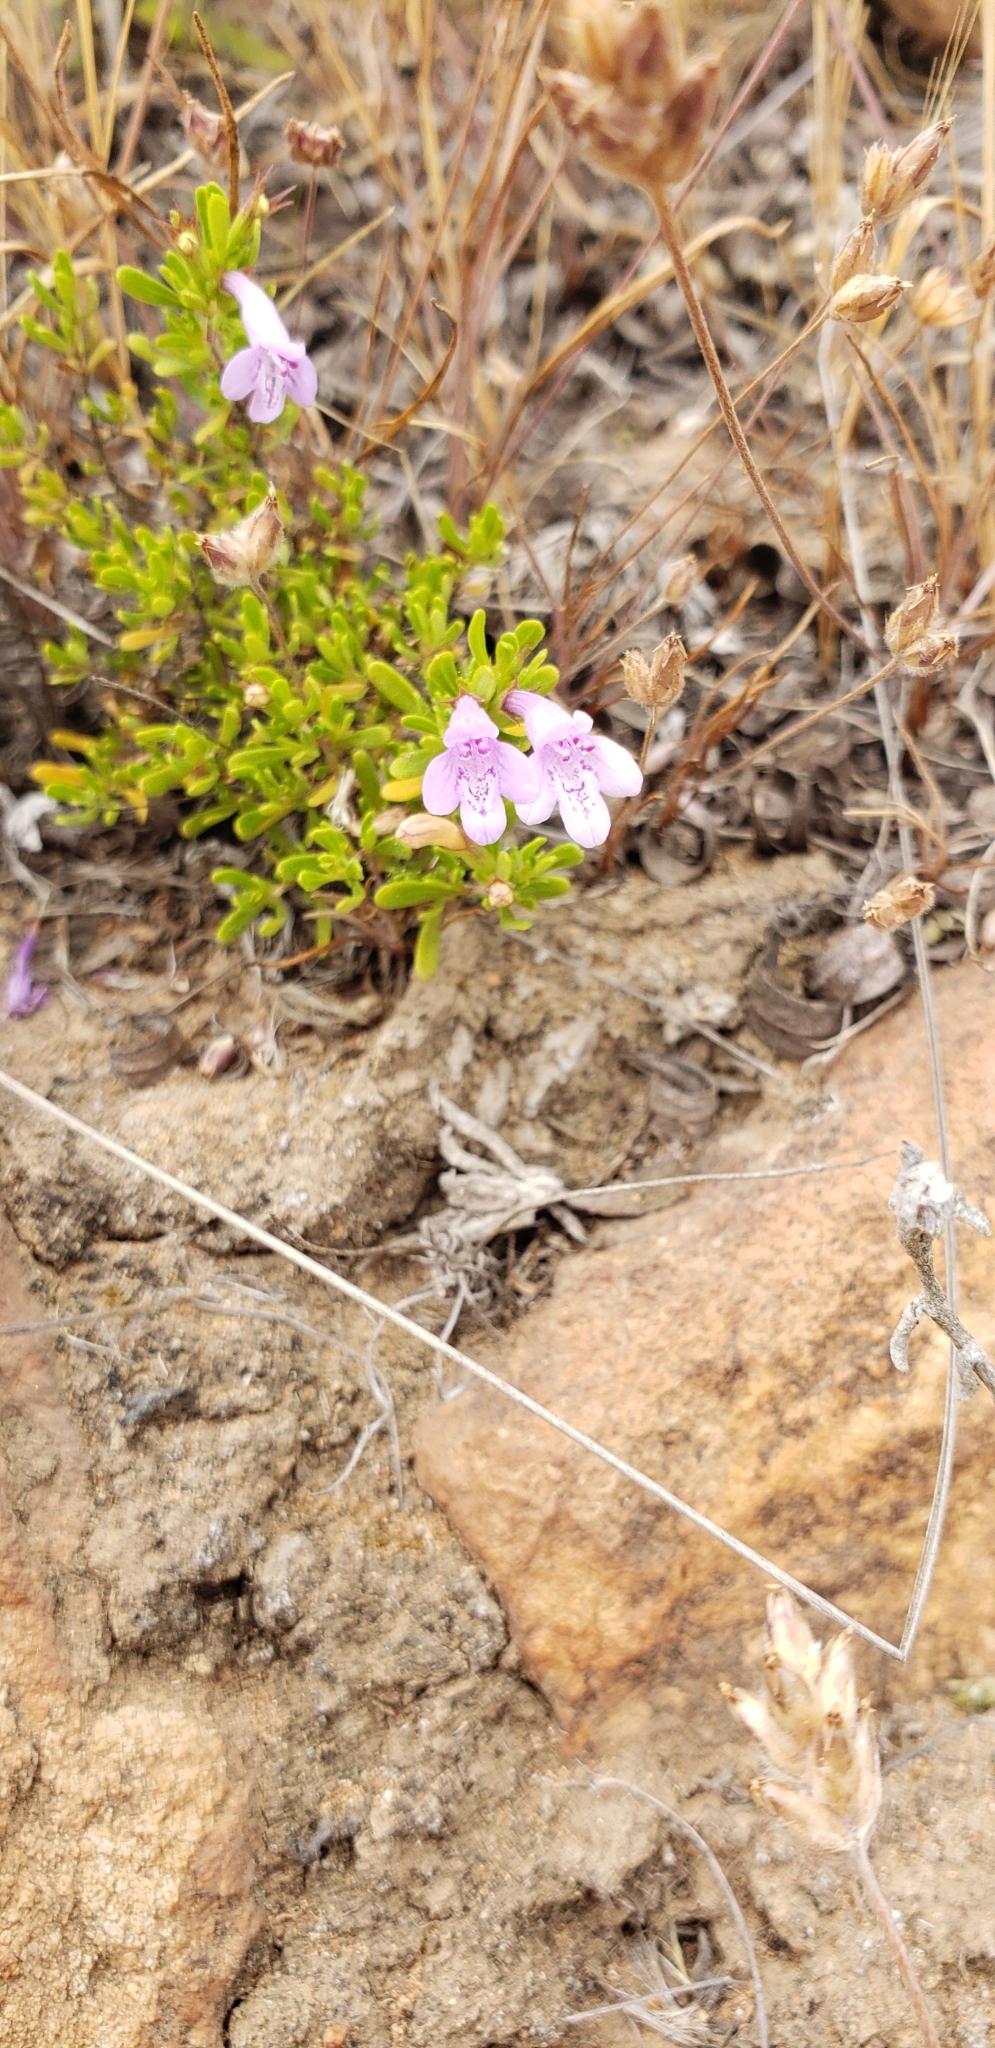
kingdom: Plantae
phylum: Tracheophyta
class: Magnoliopsida
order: Lamiales
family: Lamiaceae
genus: Clinopodium
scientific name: Clinopodium chilense
